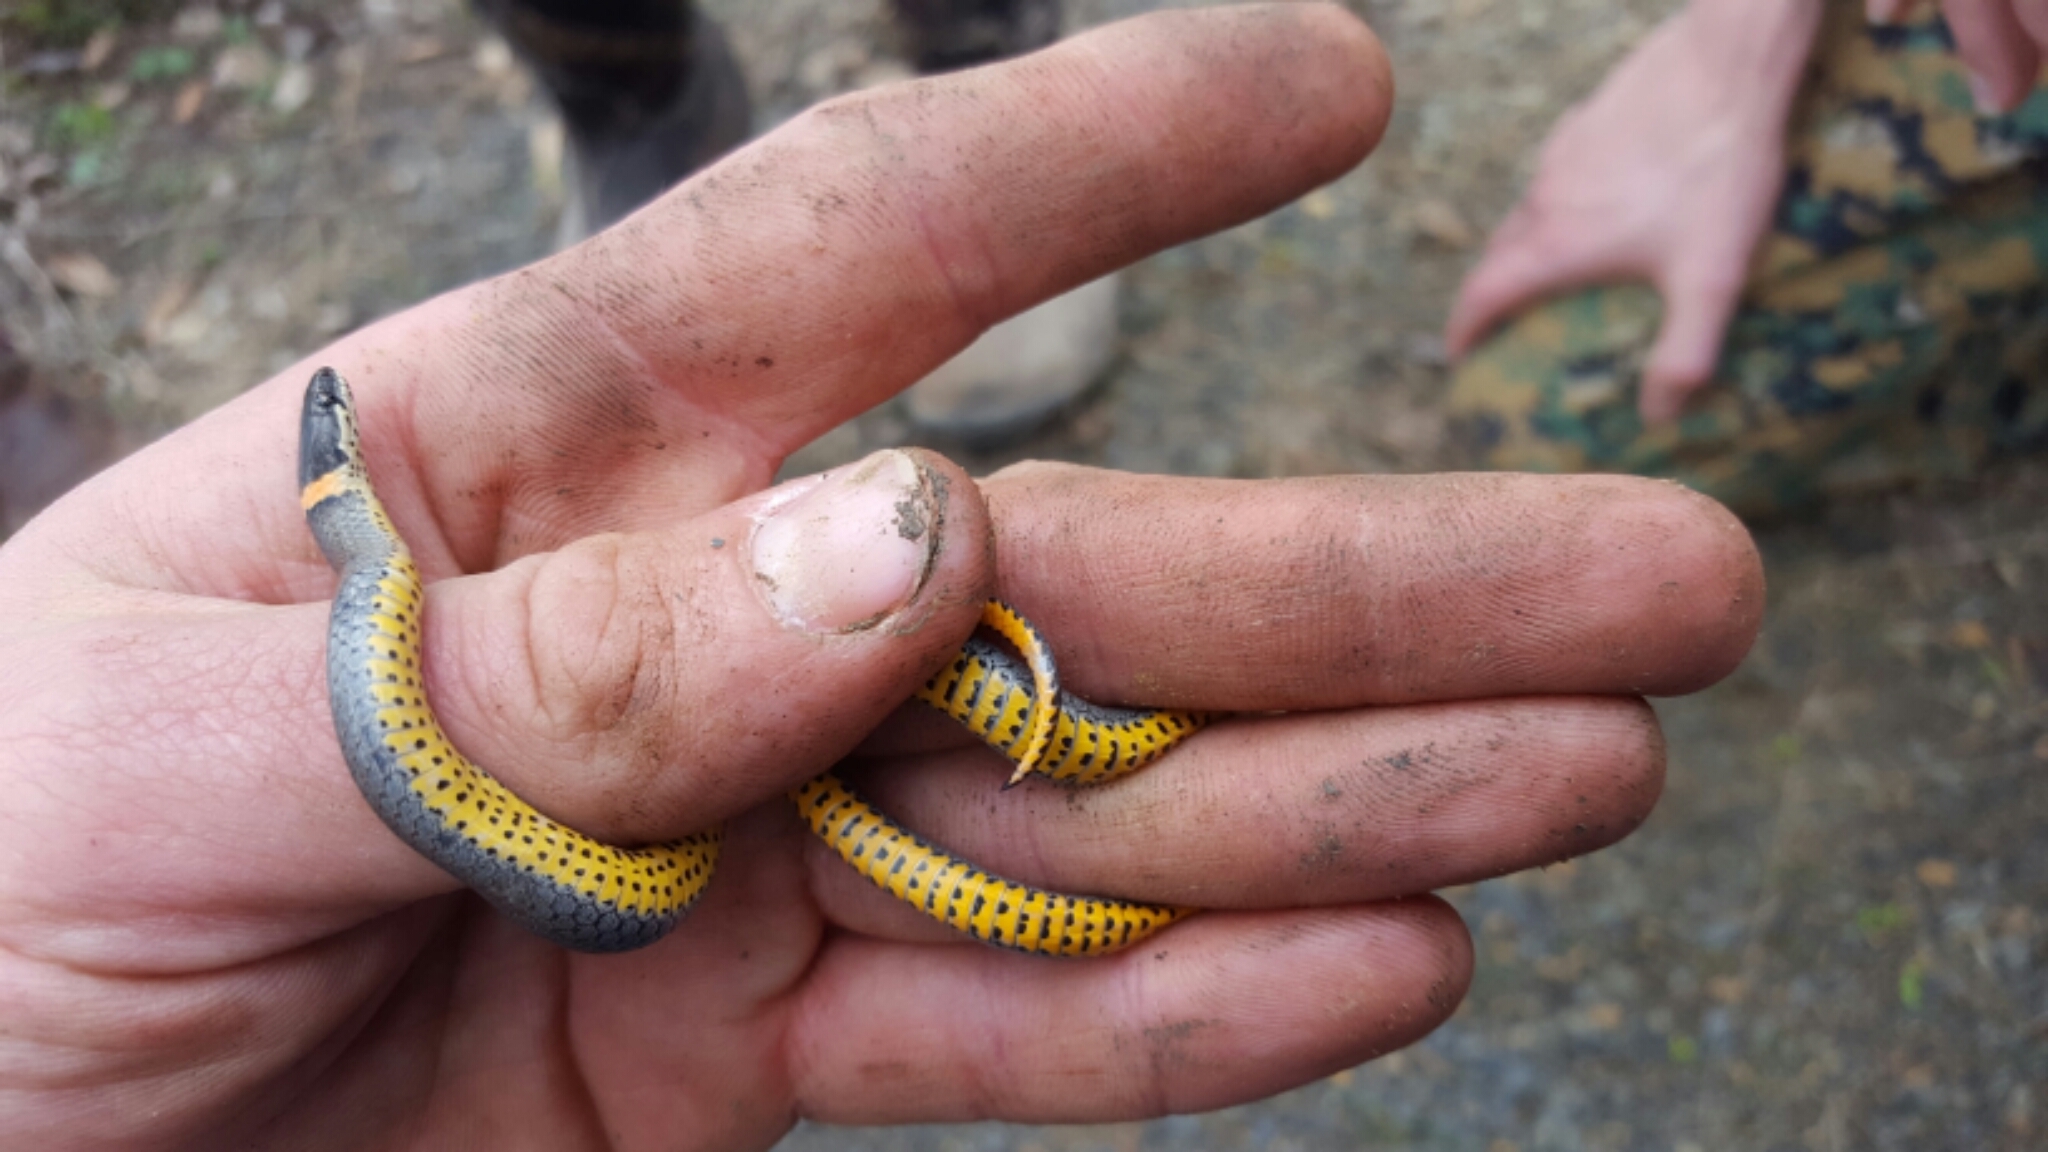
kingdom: Animalia
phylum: Chordata
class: Squamata
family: Colubridae
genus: Diadophis
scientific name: Diadophis punctatus
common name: Ringneck snake
